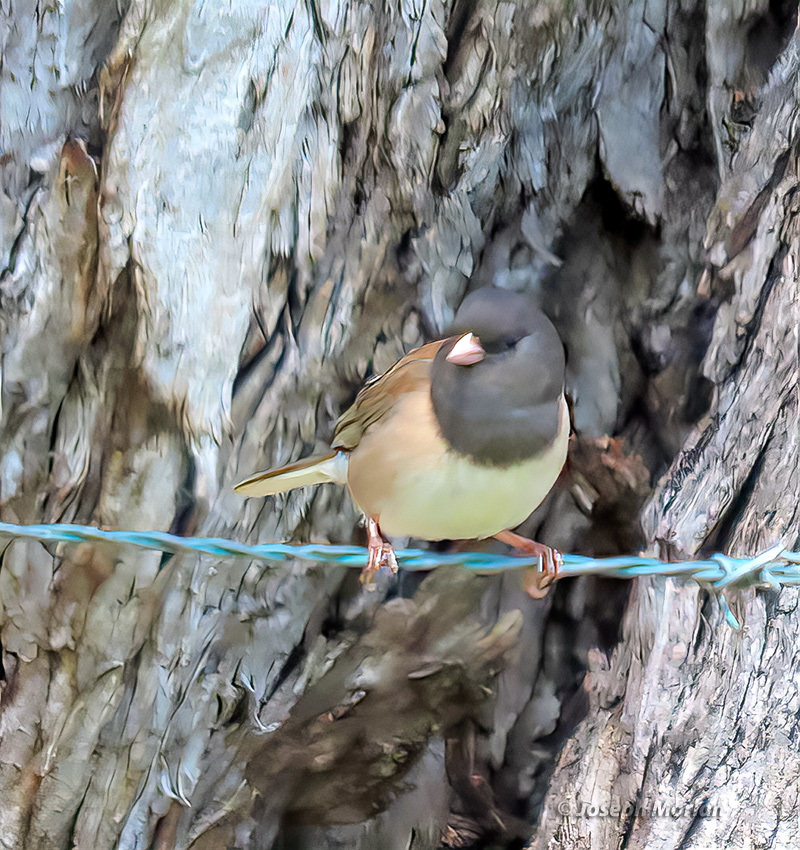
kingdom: Animalia
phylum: Chordata
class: Aves
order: Passeriformes
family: Passerellidae
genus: Junco
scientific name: Junco hyemalis
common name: Dark-eyed junco
